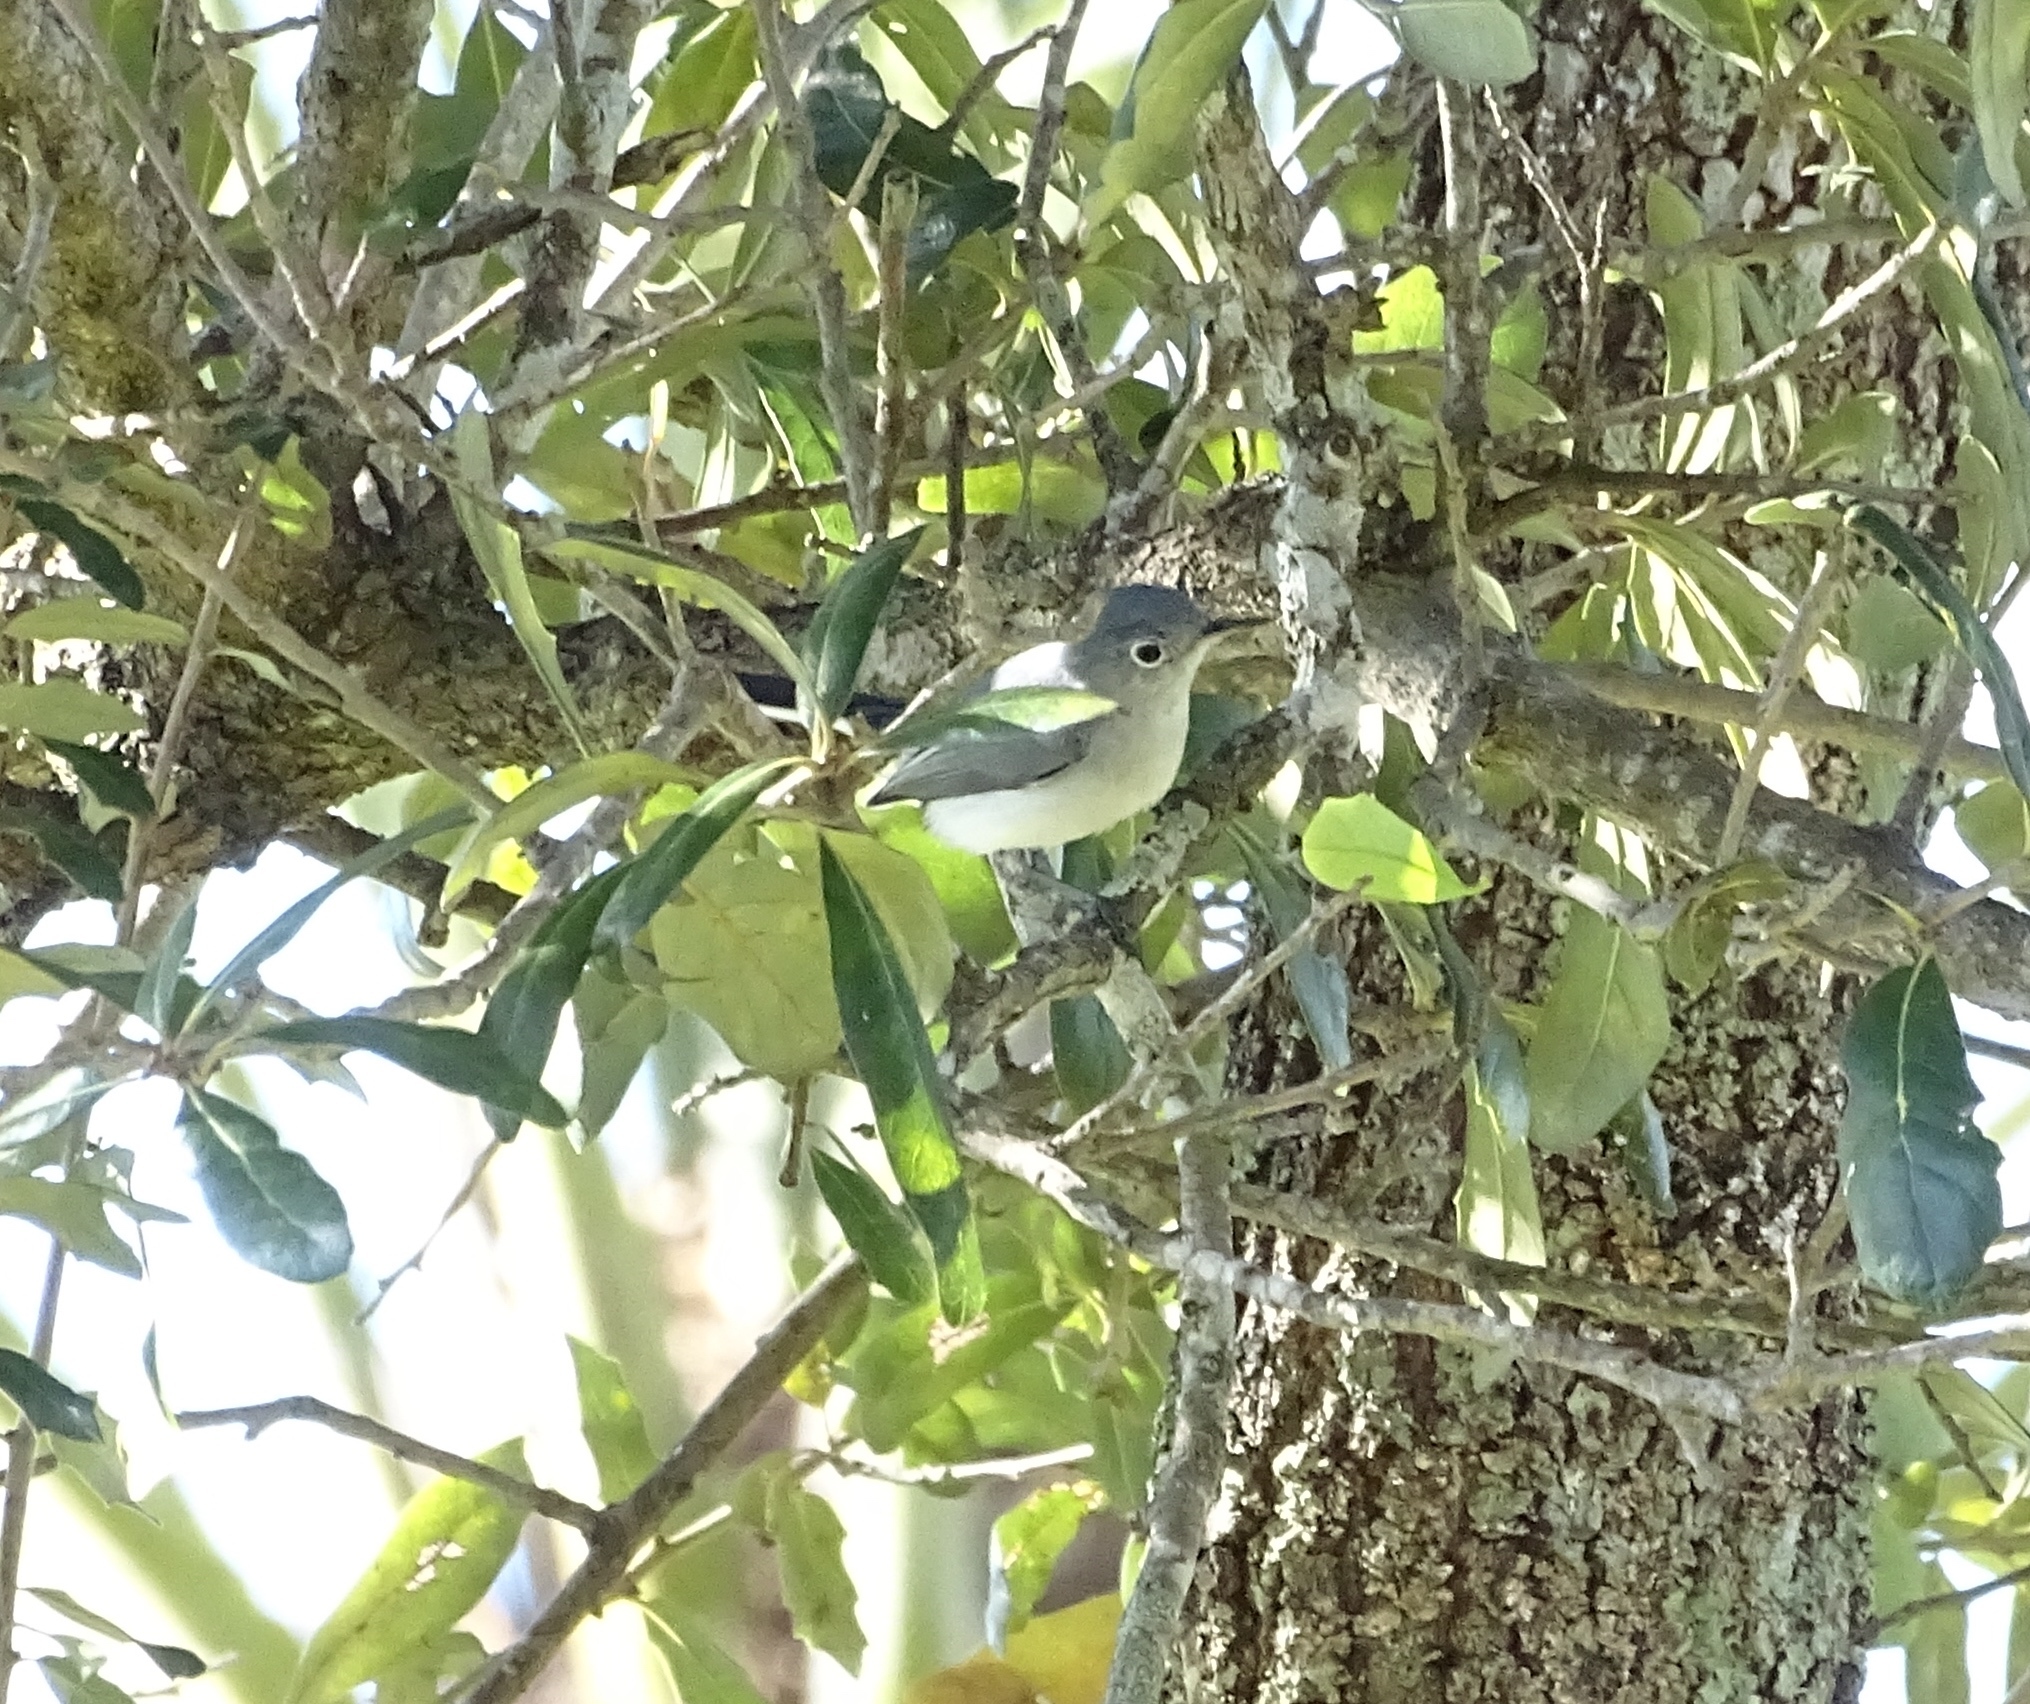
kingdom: Animalia
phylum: Chordata
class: Aves
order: Passeriformes
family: Polioptilidae
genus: Polioptila
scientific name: Polioptila caerulea
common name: Blue-gray gnatcatcher
